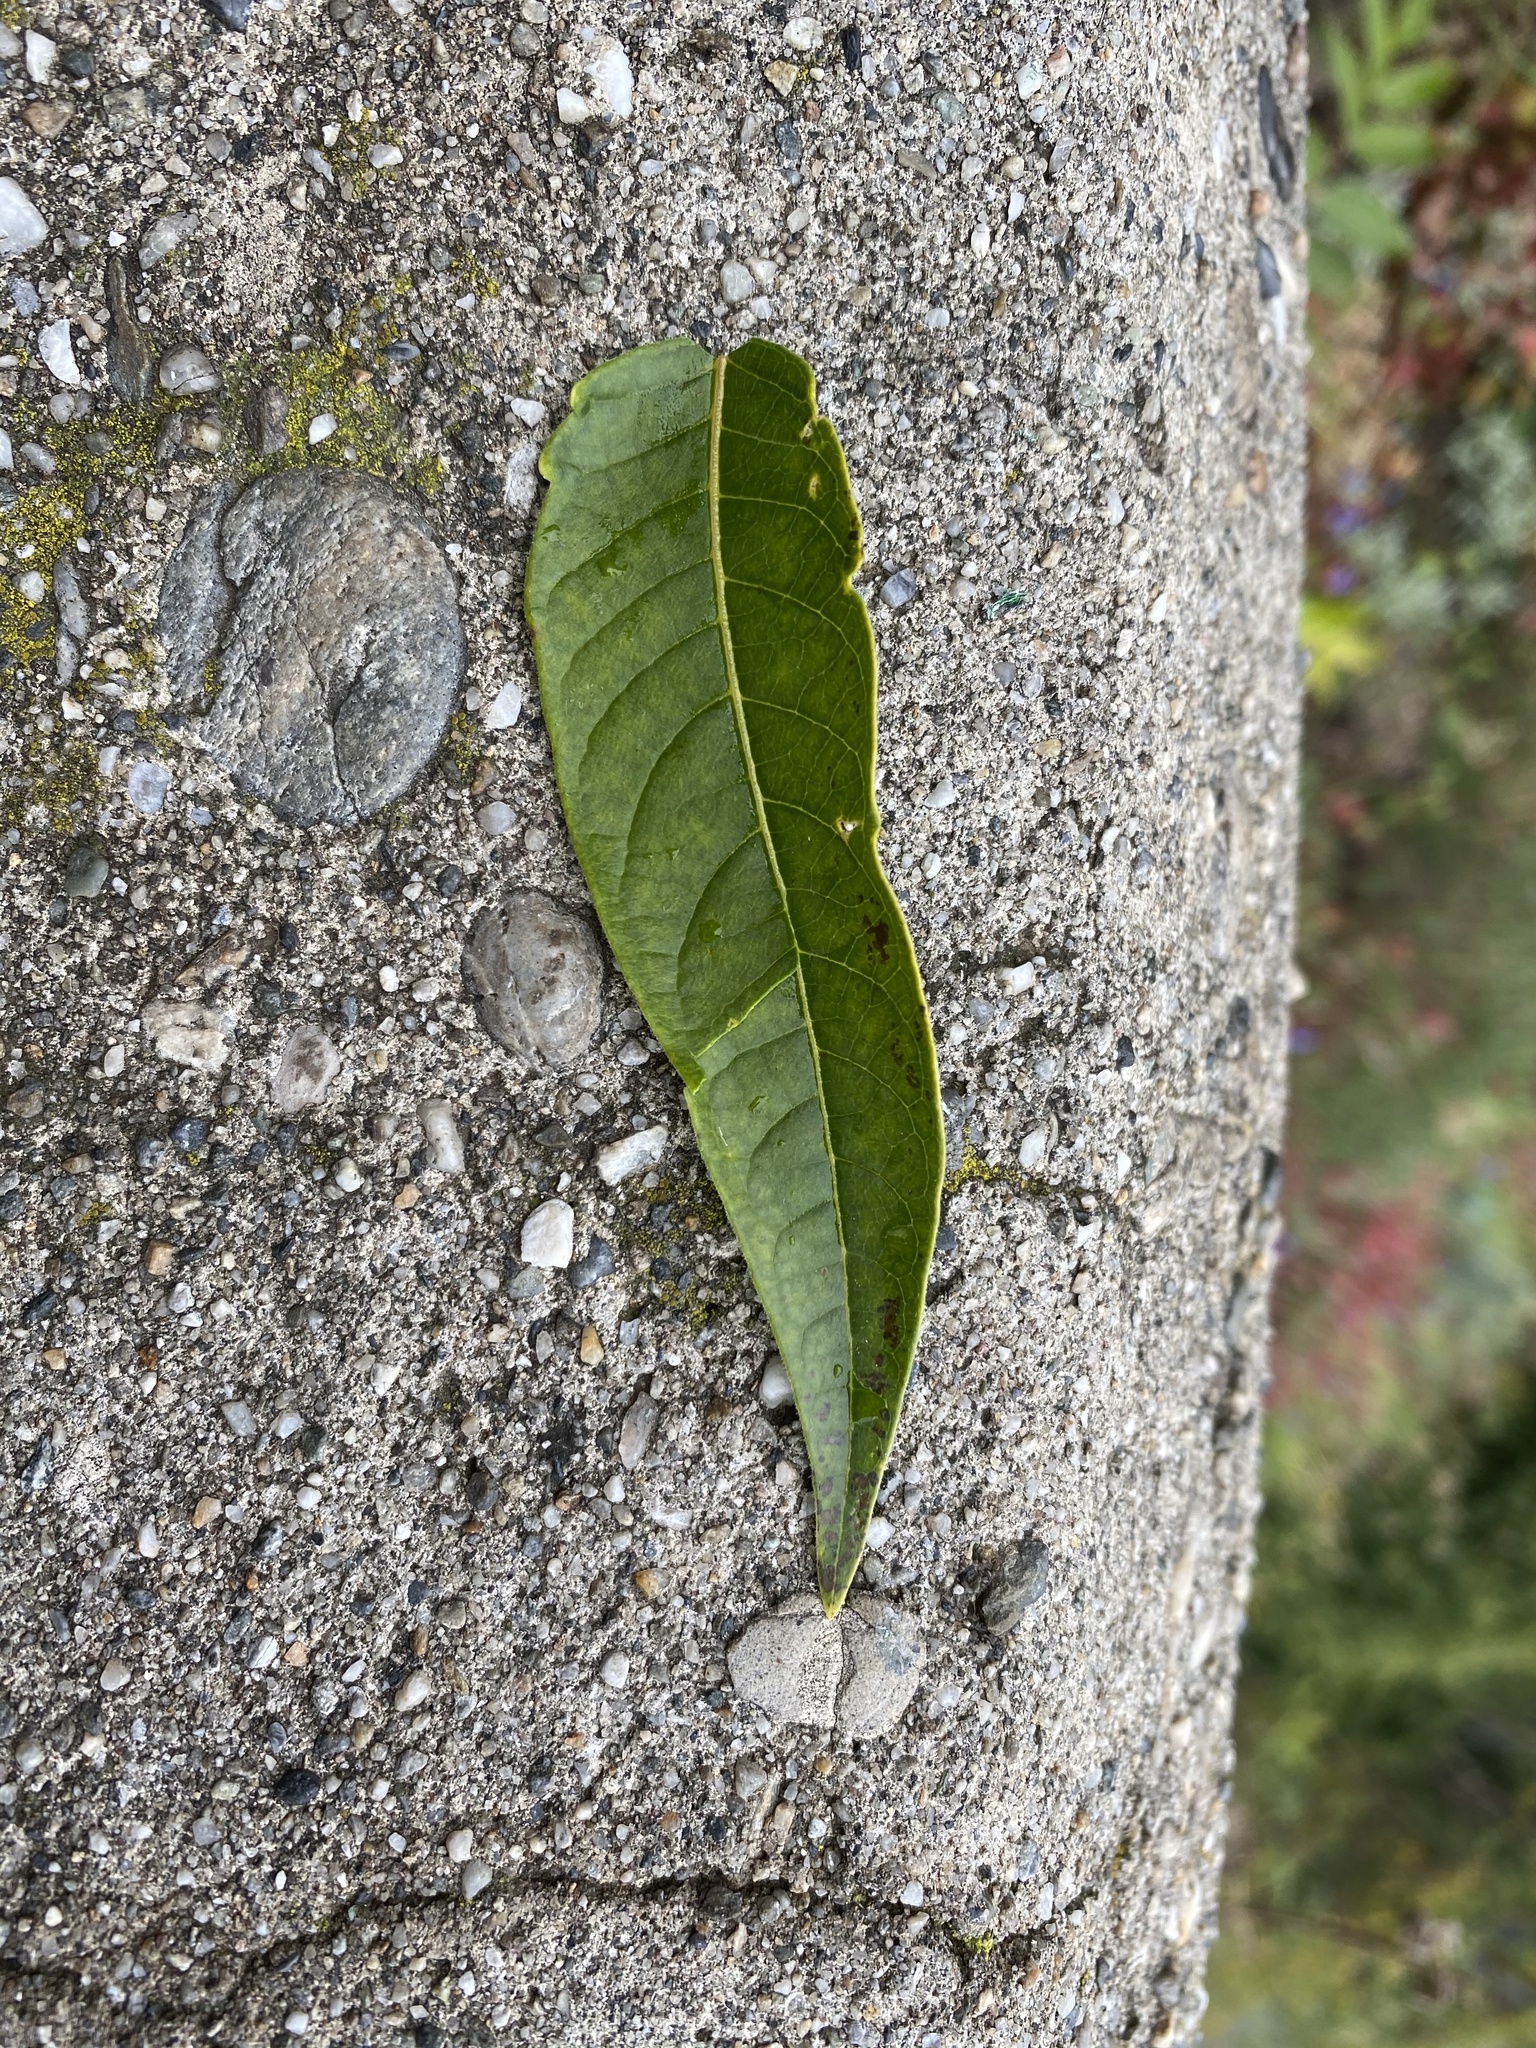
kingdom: Plantae
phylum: Tracheophyta
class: Magnoliopsida
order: Sapindales
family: Simaroubaceae
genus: Ailanthus
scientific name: Ailanthus altissima
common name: Tree-of-heaven
